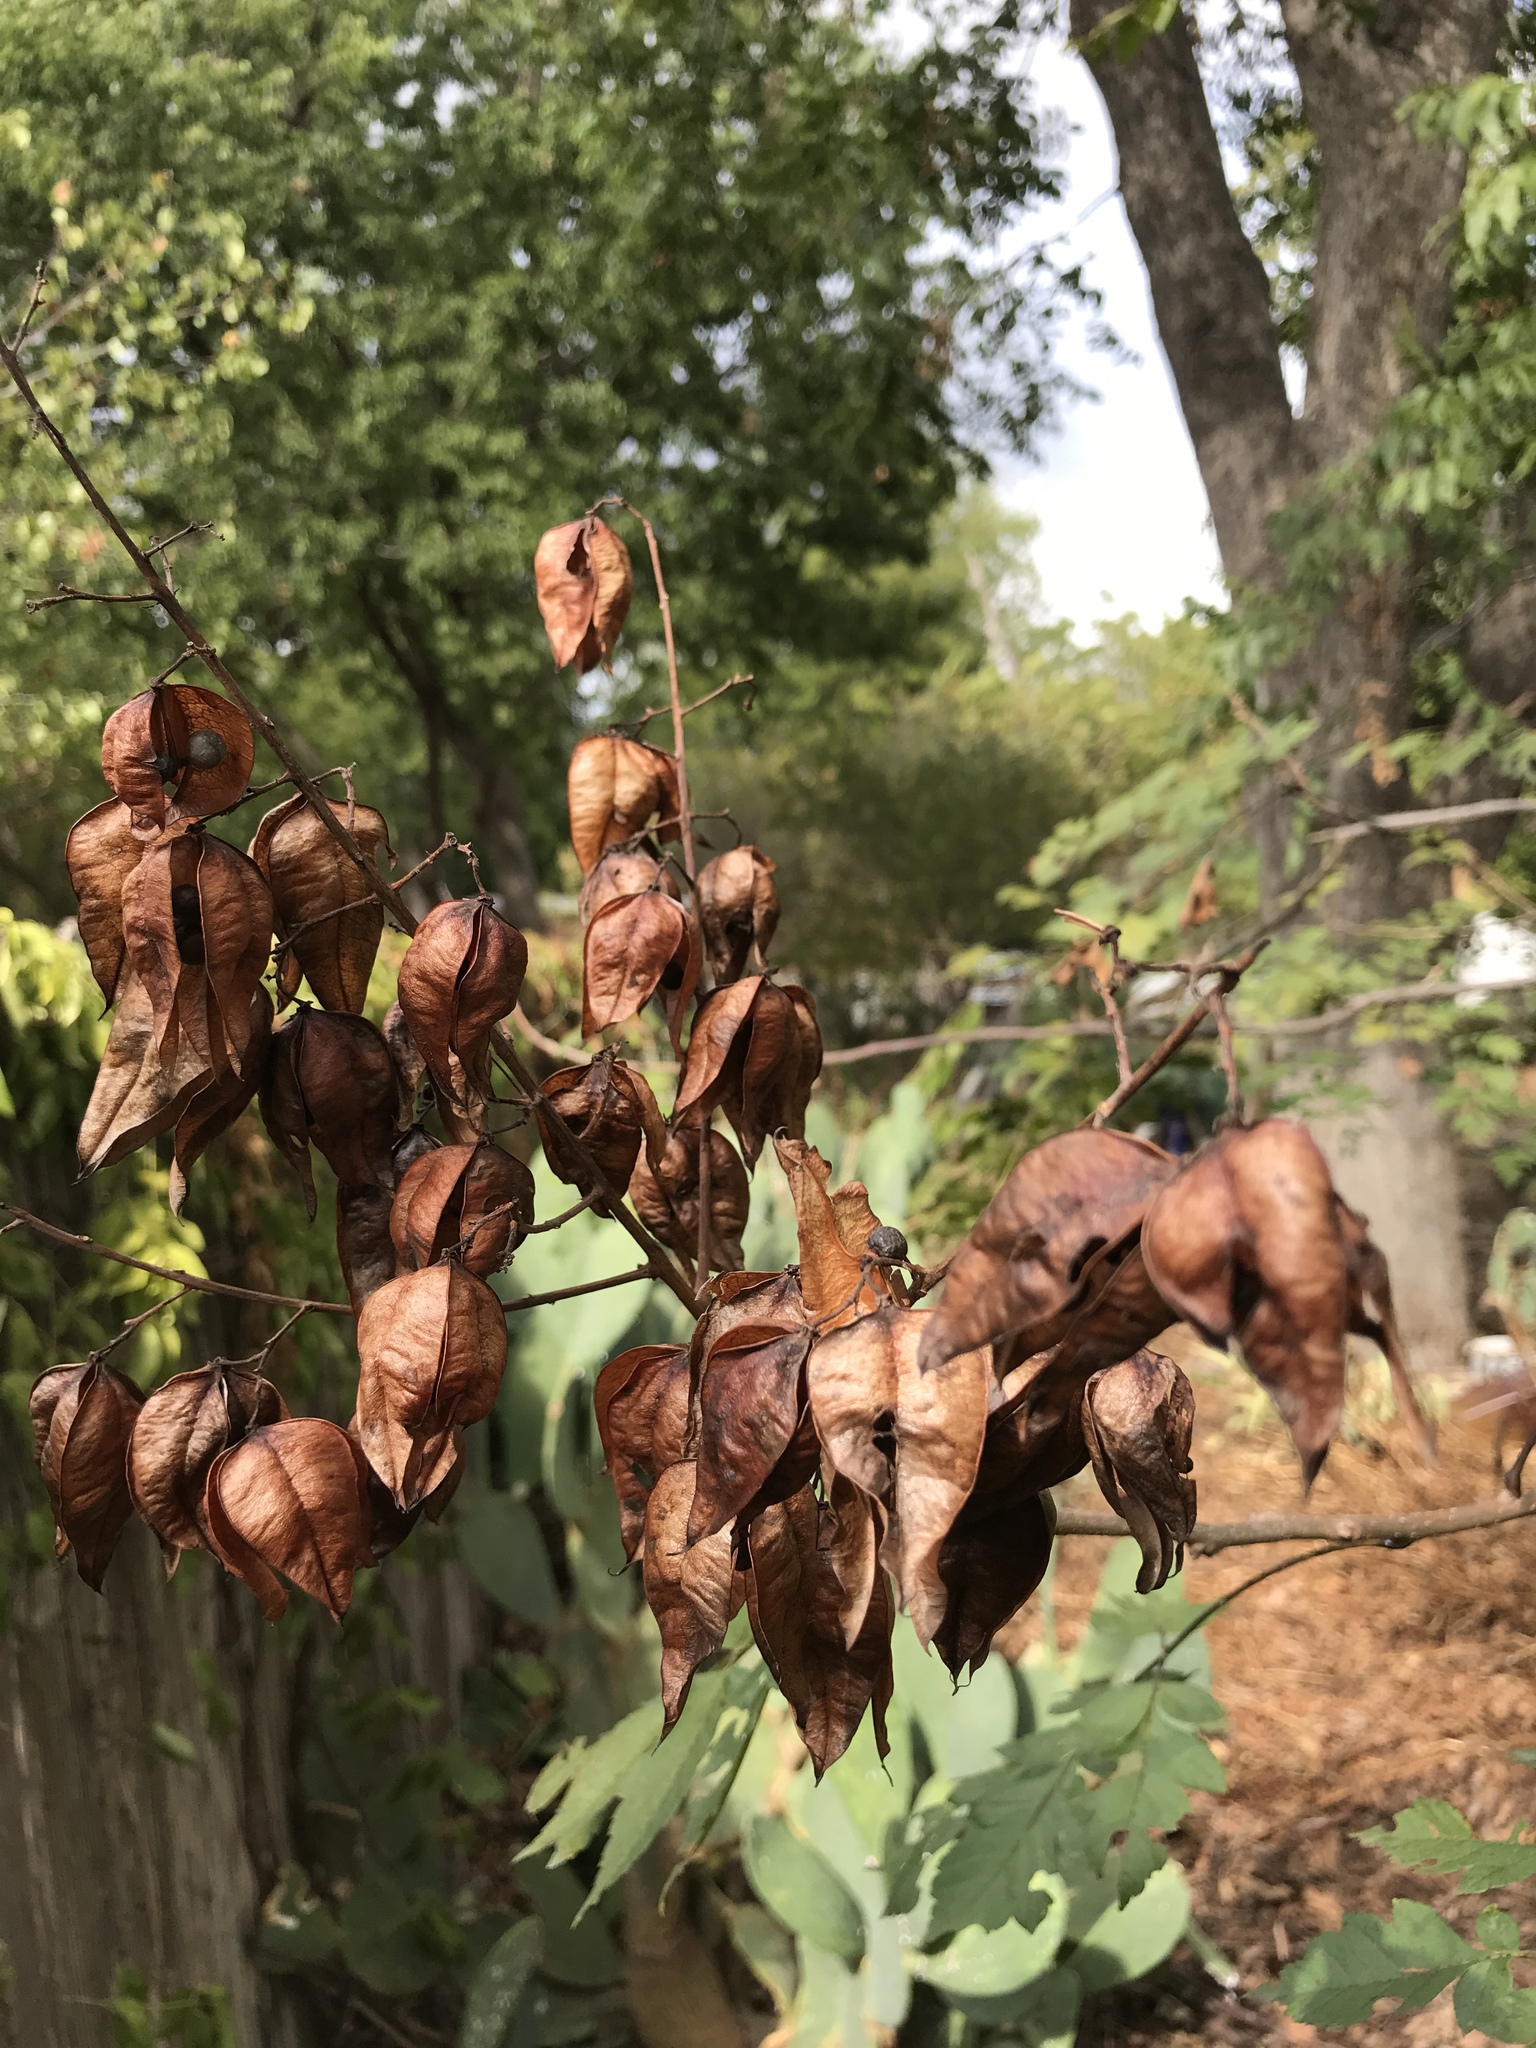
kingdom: Plantae
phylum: Tracheophyta
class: Magnoliopsida
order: Sapindales
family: Sapindaceae
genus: Koelreuteria
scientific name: Koelreuteria paniculata
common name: Pride-of-india
